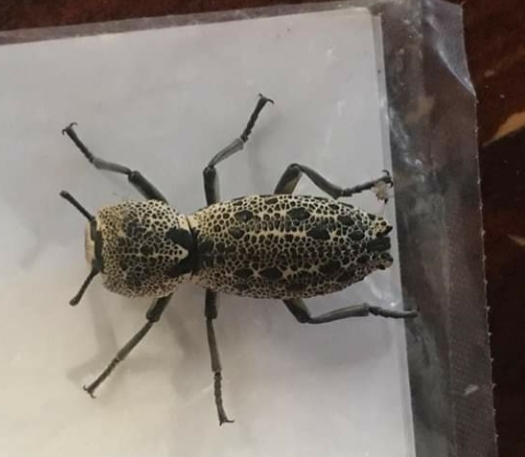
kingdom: Animalia
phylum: Arthropoda
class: Insecta
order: Coleoptera
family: Zopheridae
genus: Zopherus
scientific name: Zopherus
